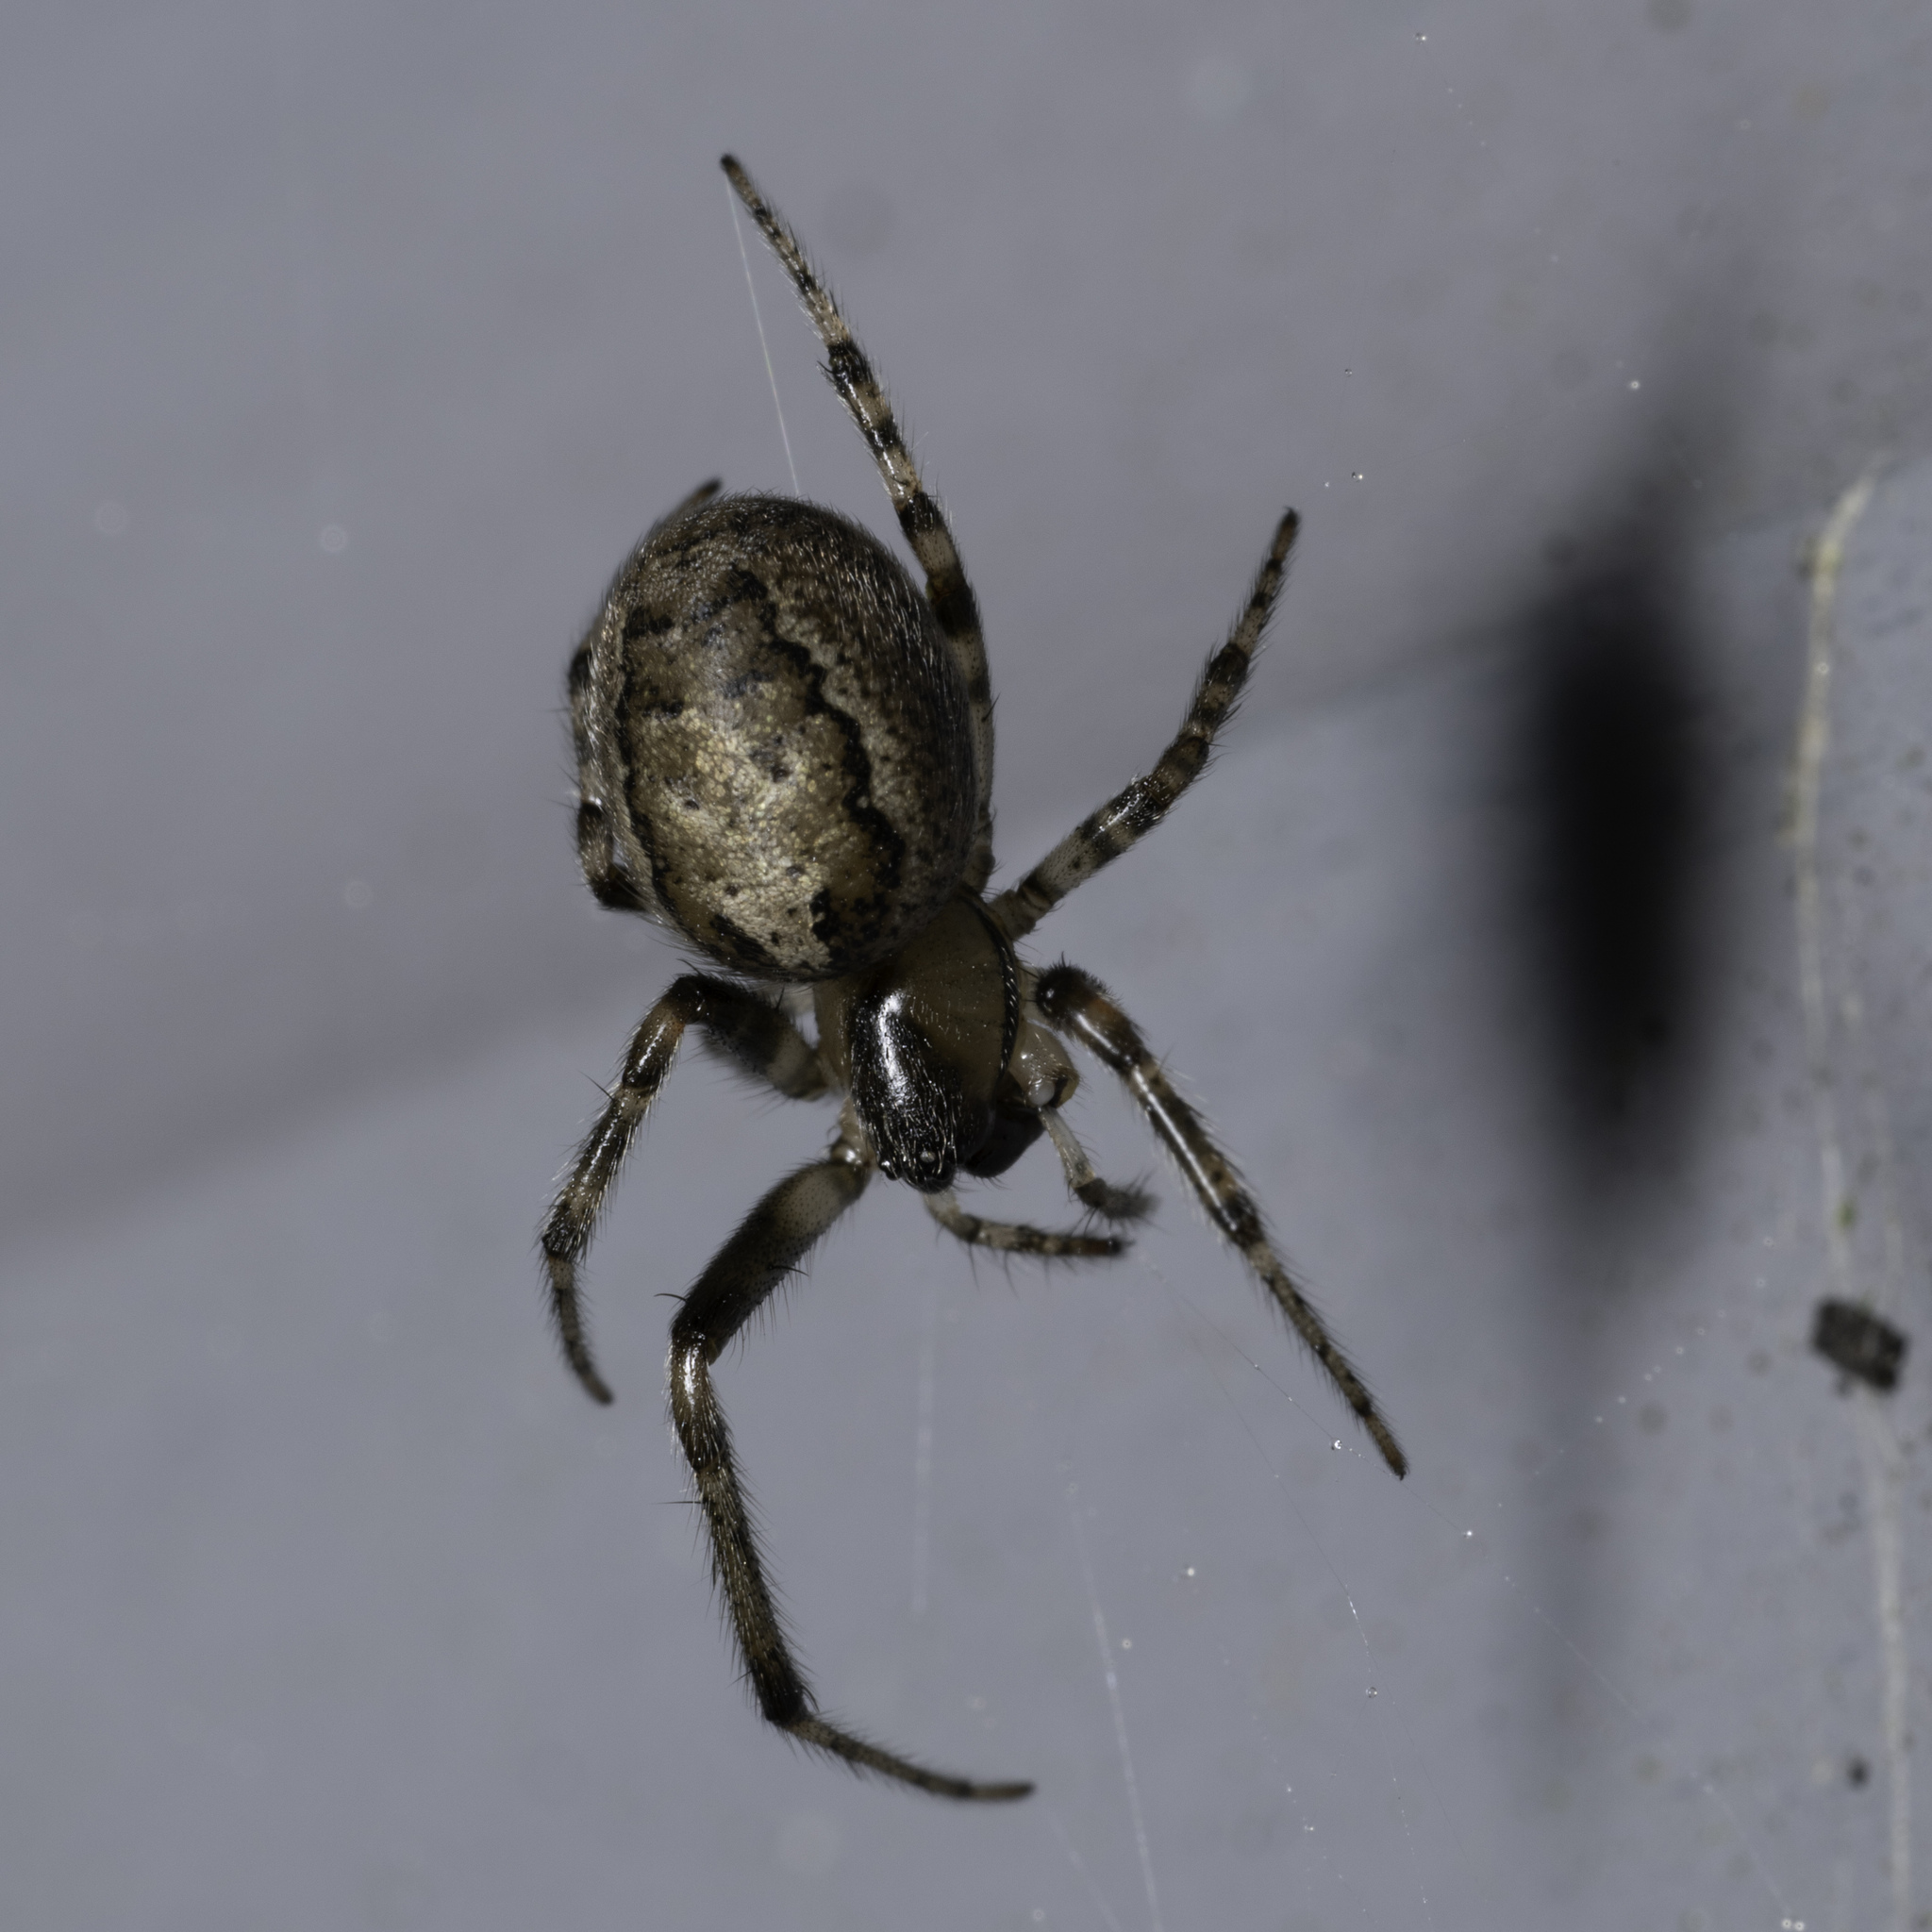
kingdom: Animalia
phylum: Arthropoda
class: Arachnida
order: Araneae
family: Araneidae
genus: Zygiella
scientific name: Zygiella x-notata
